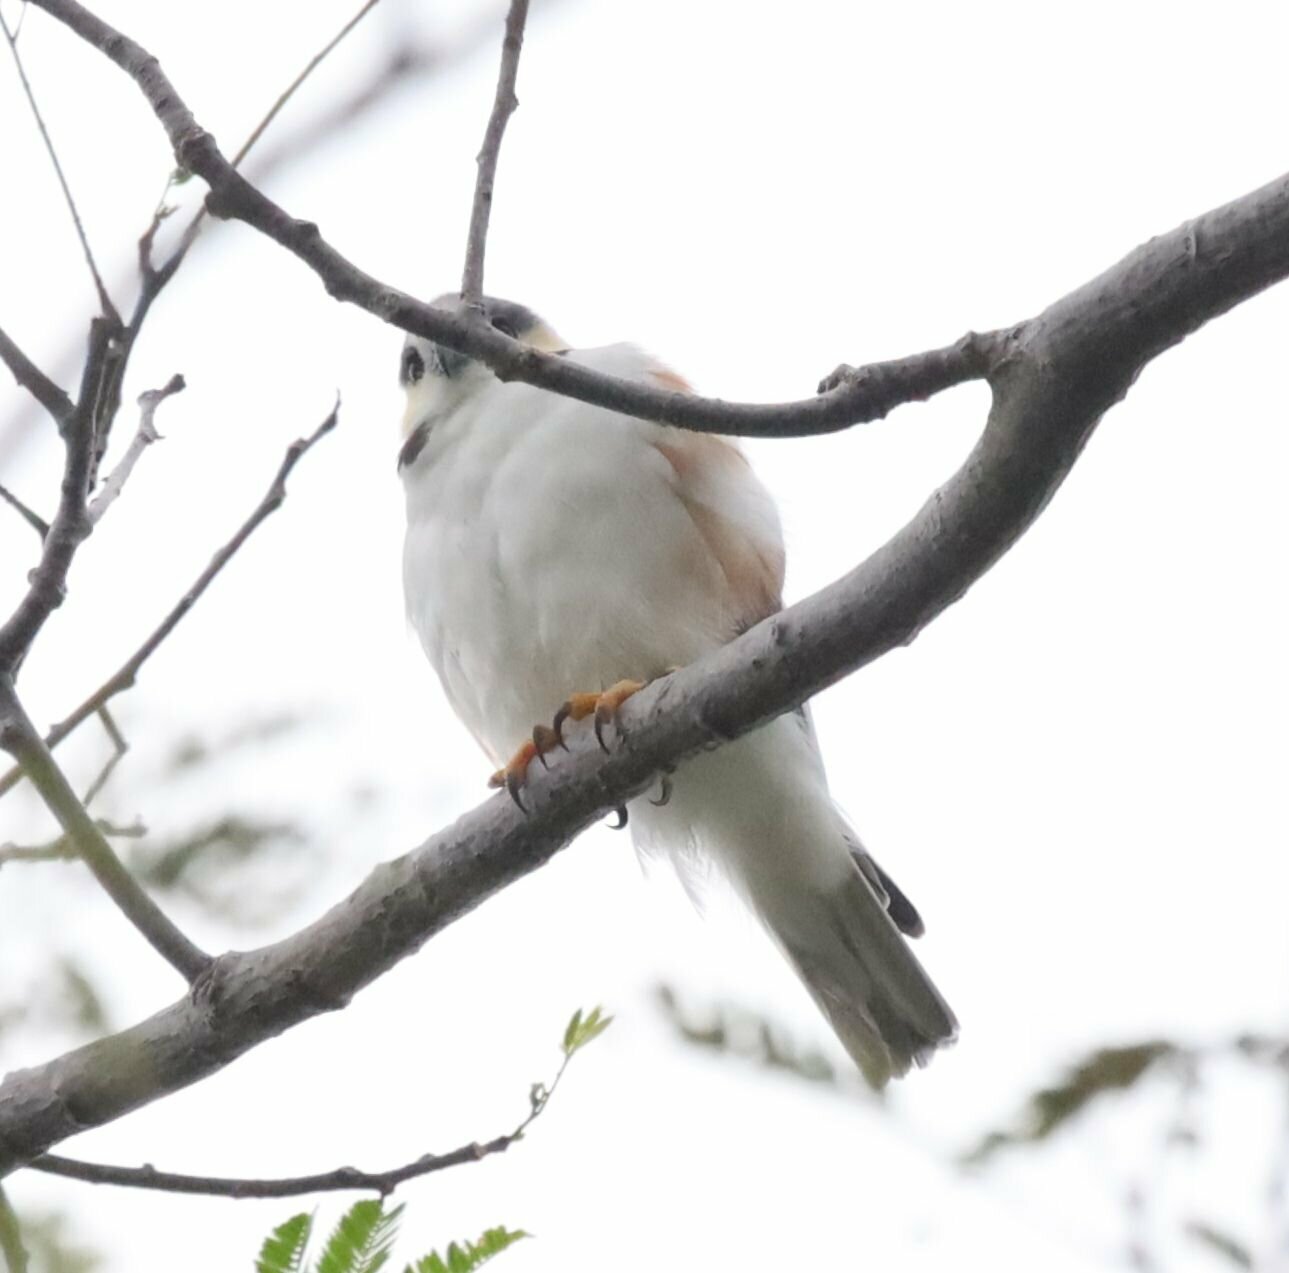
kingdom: Animalia
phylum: Chordata
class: Aves
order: Accipitriformes
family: Accipitridae
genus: Gampsonyx
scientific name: Gampsonyx swainsonii
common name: Pearl kite
